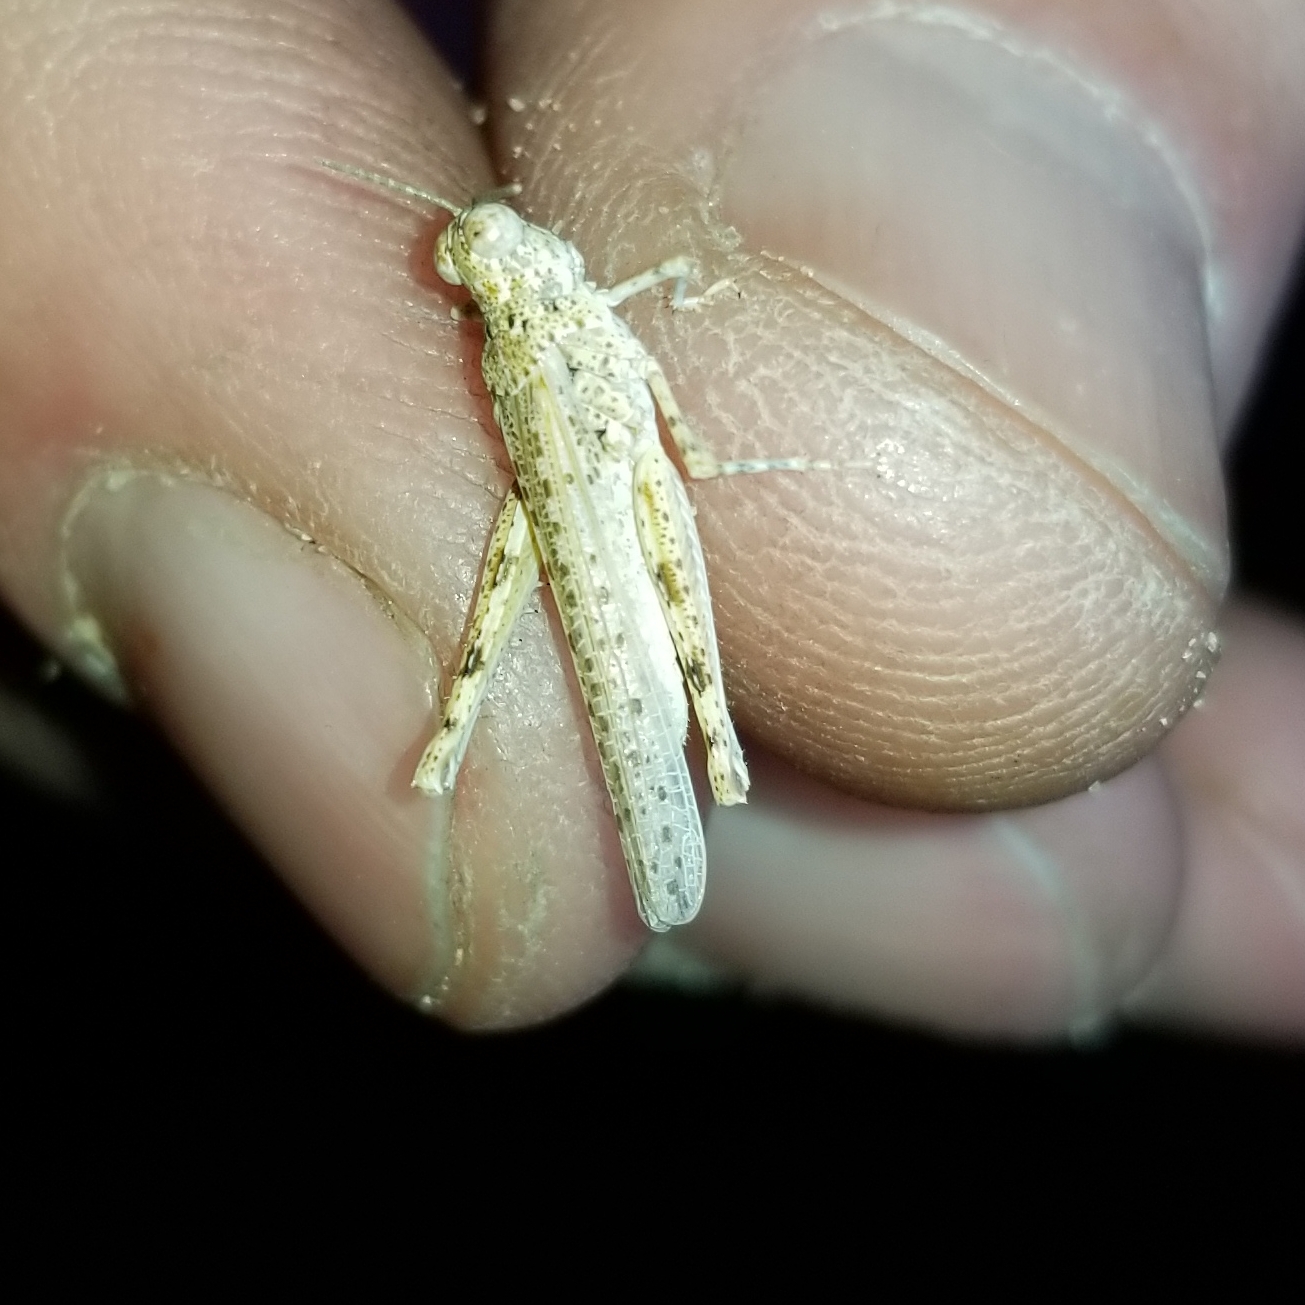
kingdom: Animalia
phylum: Arthropoda
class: Insecta
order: Orthoptera
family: Acrididae
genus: Xeracris
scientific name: Xeracris snowi
